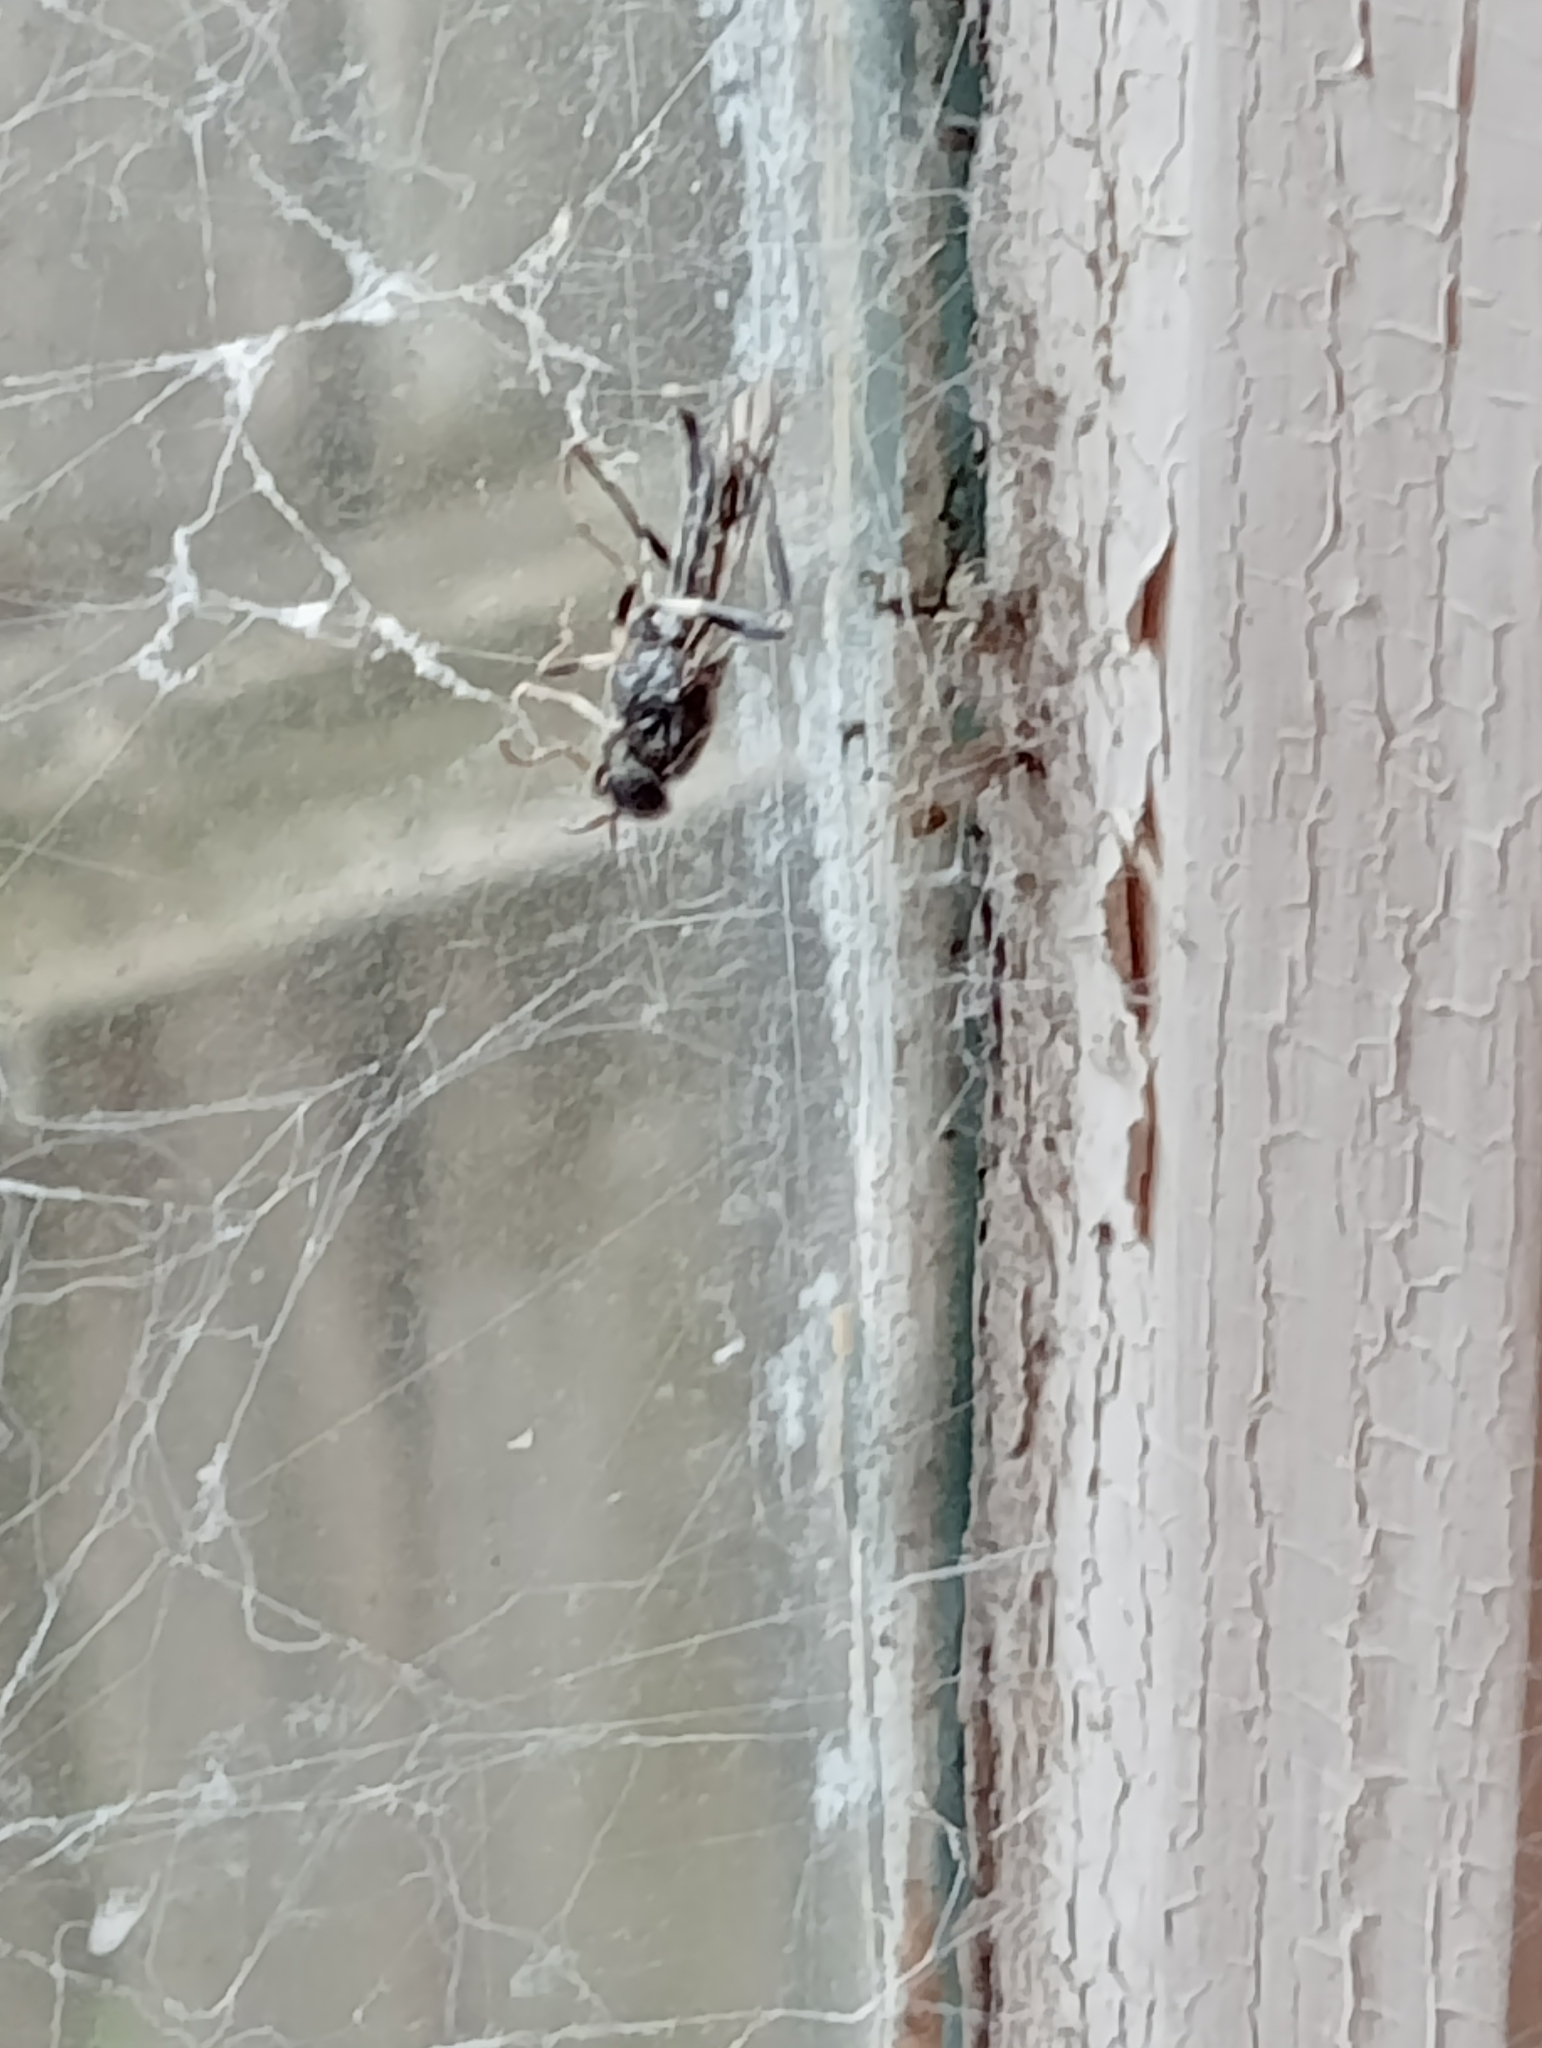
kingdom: Animalia
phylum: Arthropoda
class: Insecta
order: Diptera
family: Stratiomyidae
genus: Exaireta
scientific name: Exaireta spinigera
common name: Blue soldier fly
